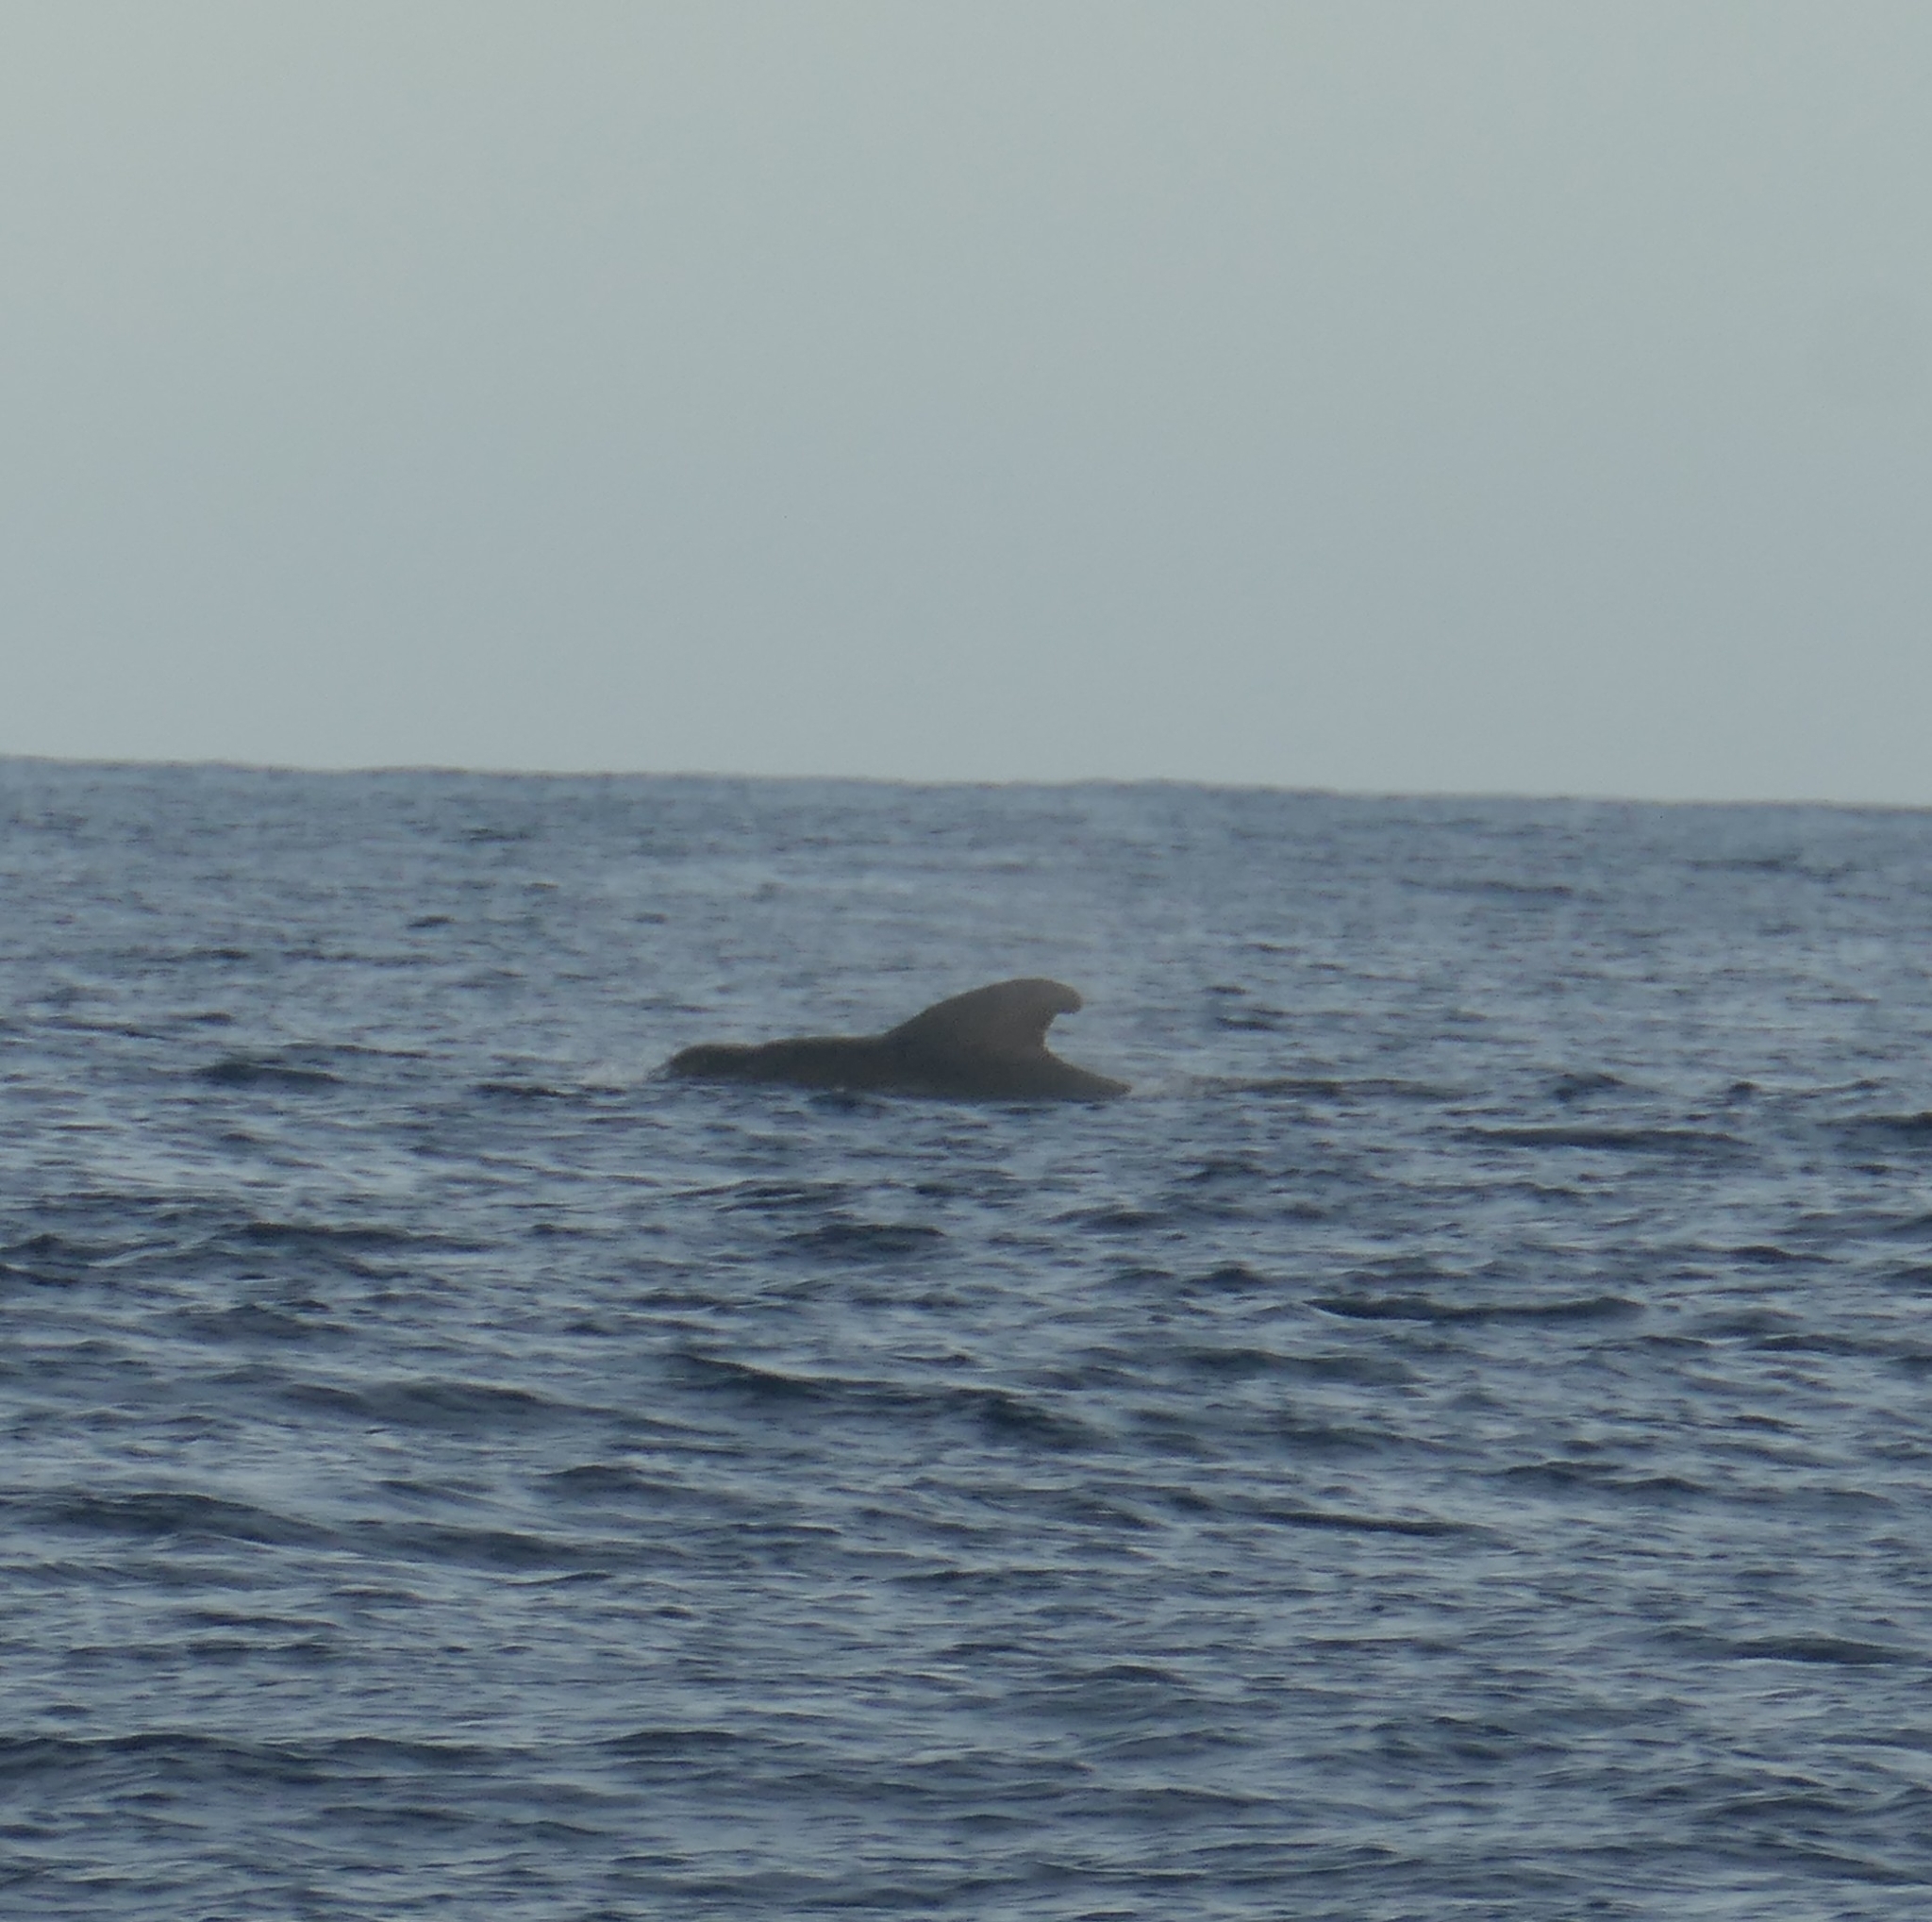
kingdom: Animalia
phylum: Chordata
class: Mammalia
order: Cetacea
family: Delphinidae
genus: Globicephala
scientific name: Globicephala macrorhynchus
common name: Short-finned pilot whale
